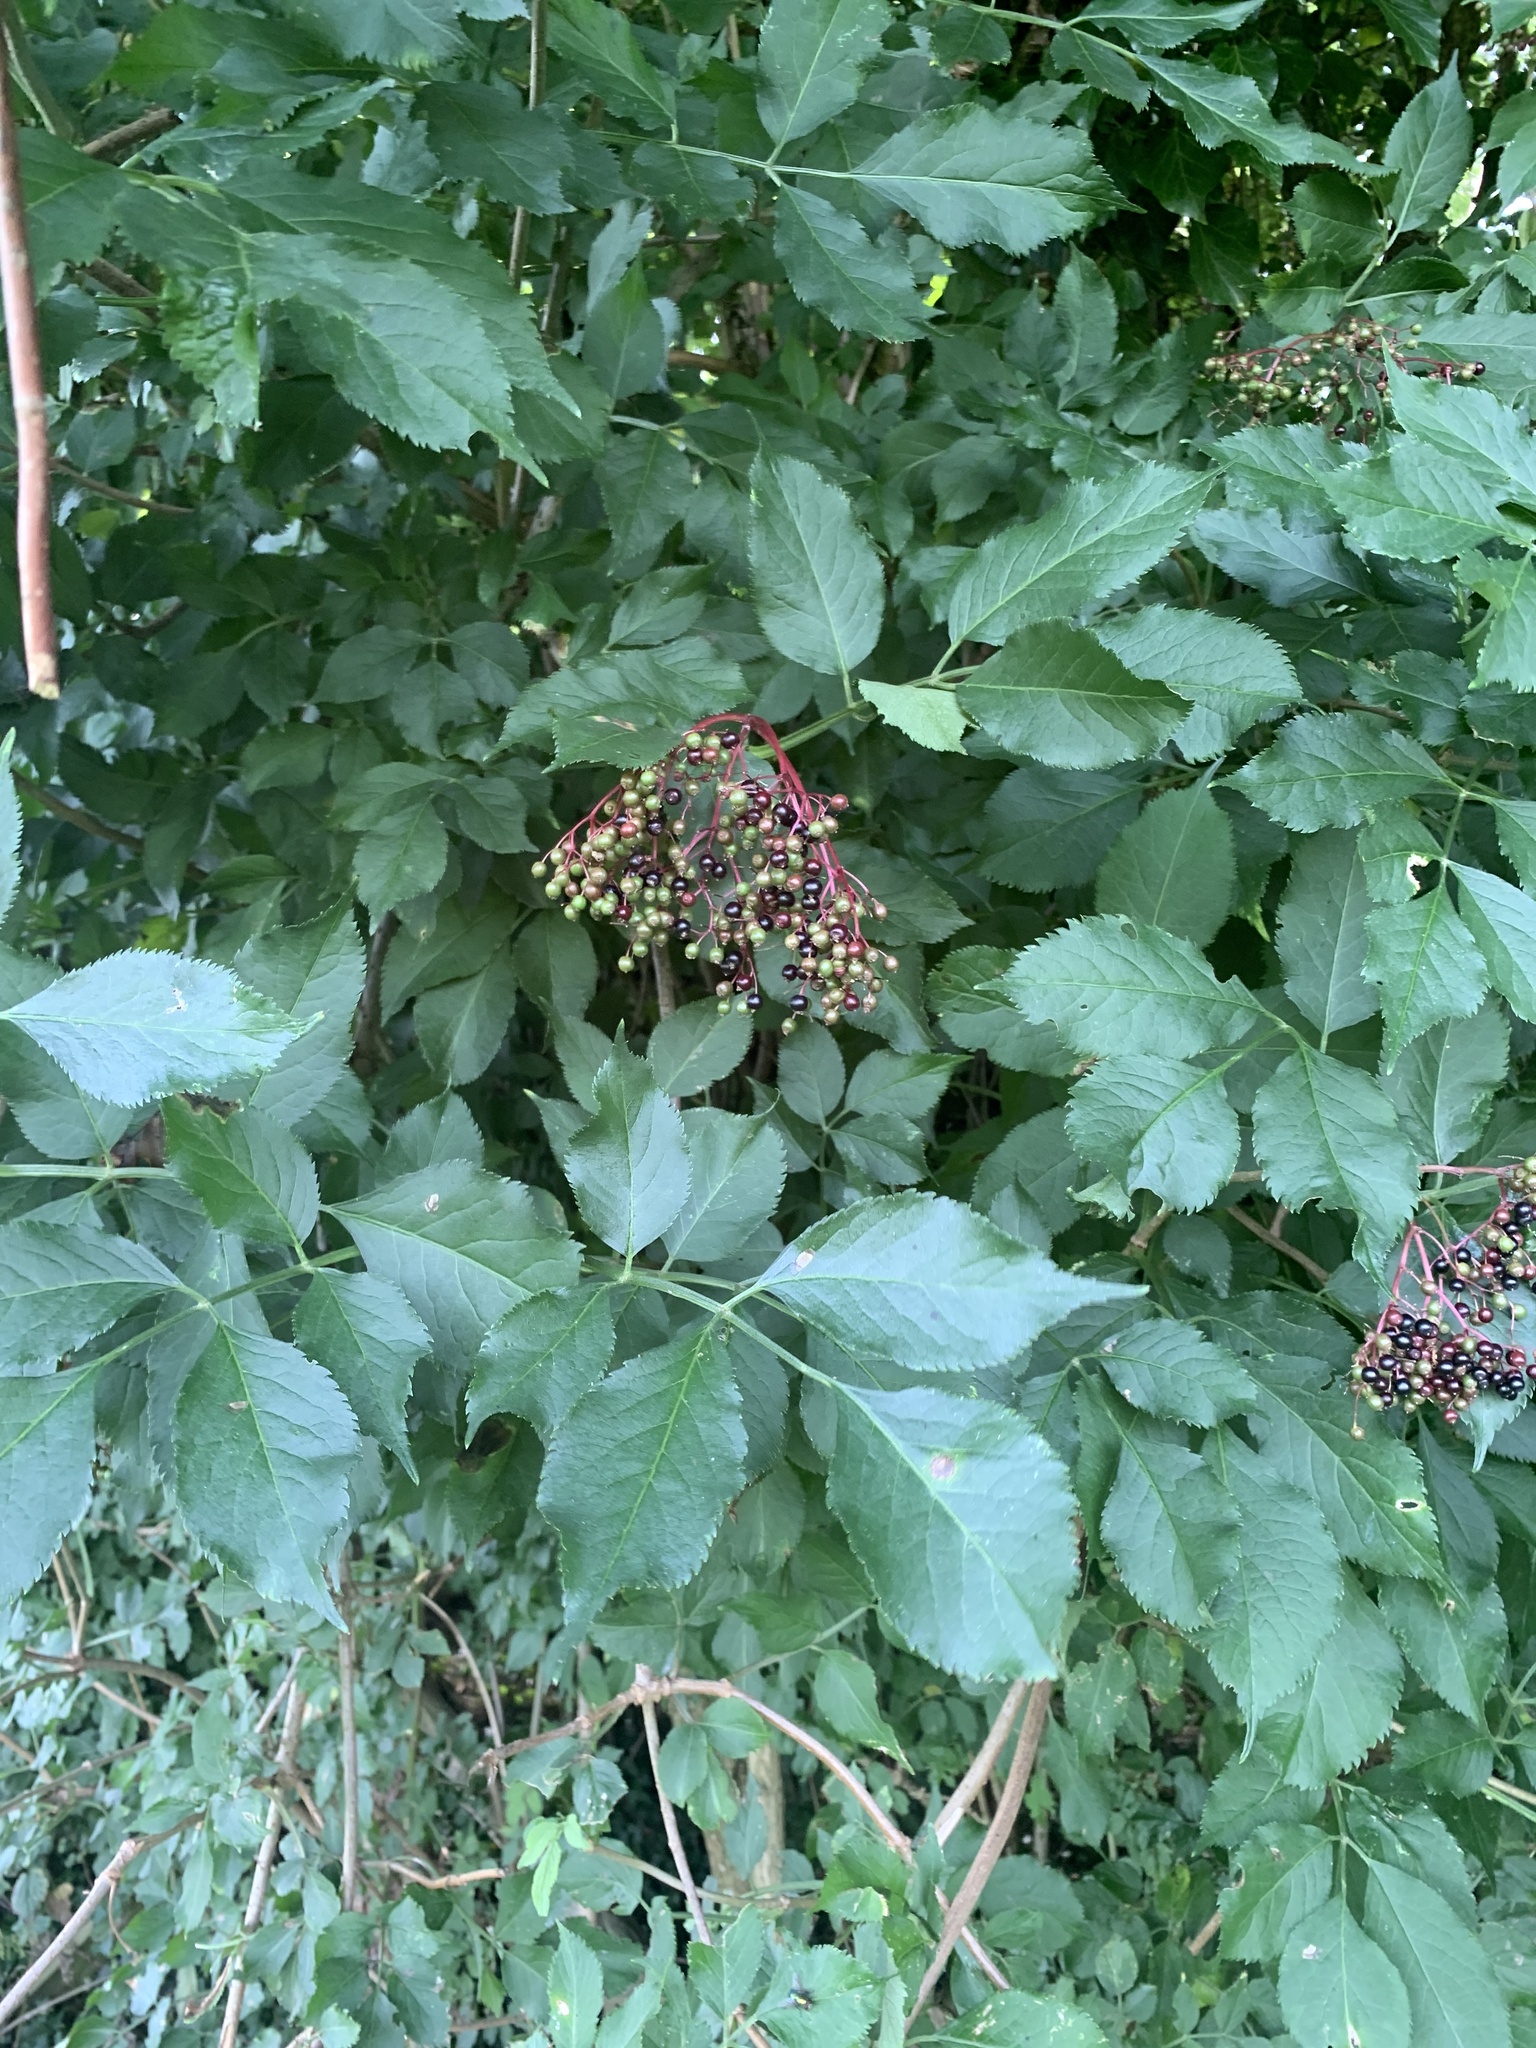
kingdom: Plantae
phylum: Tracheophyta
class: Magnoliopsida
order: Dipsacales
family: Viburnaceae
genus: Sambucus
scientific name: Sambucus nigra
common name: Elder
